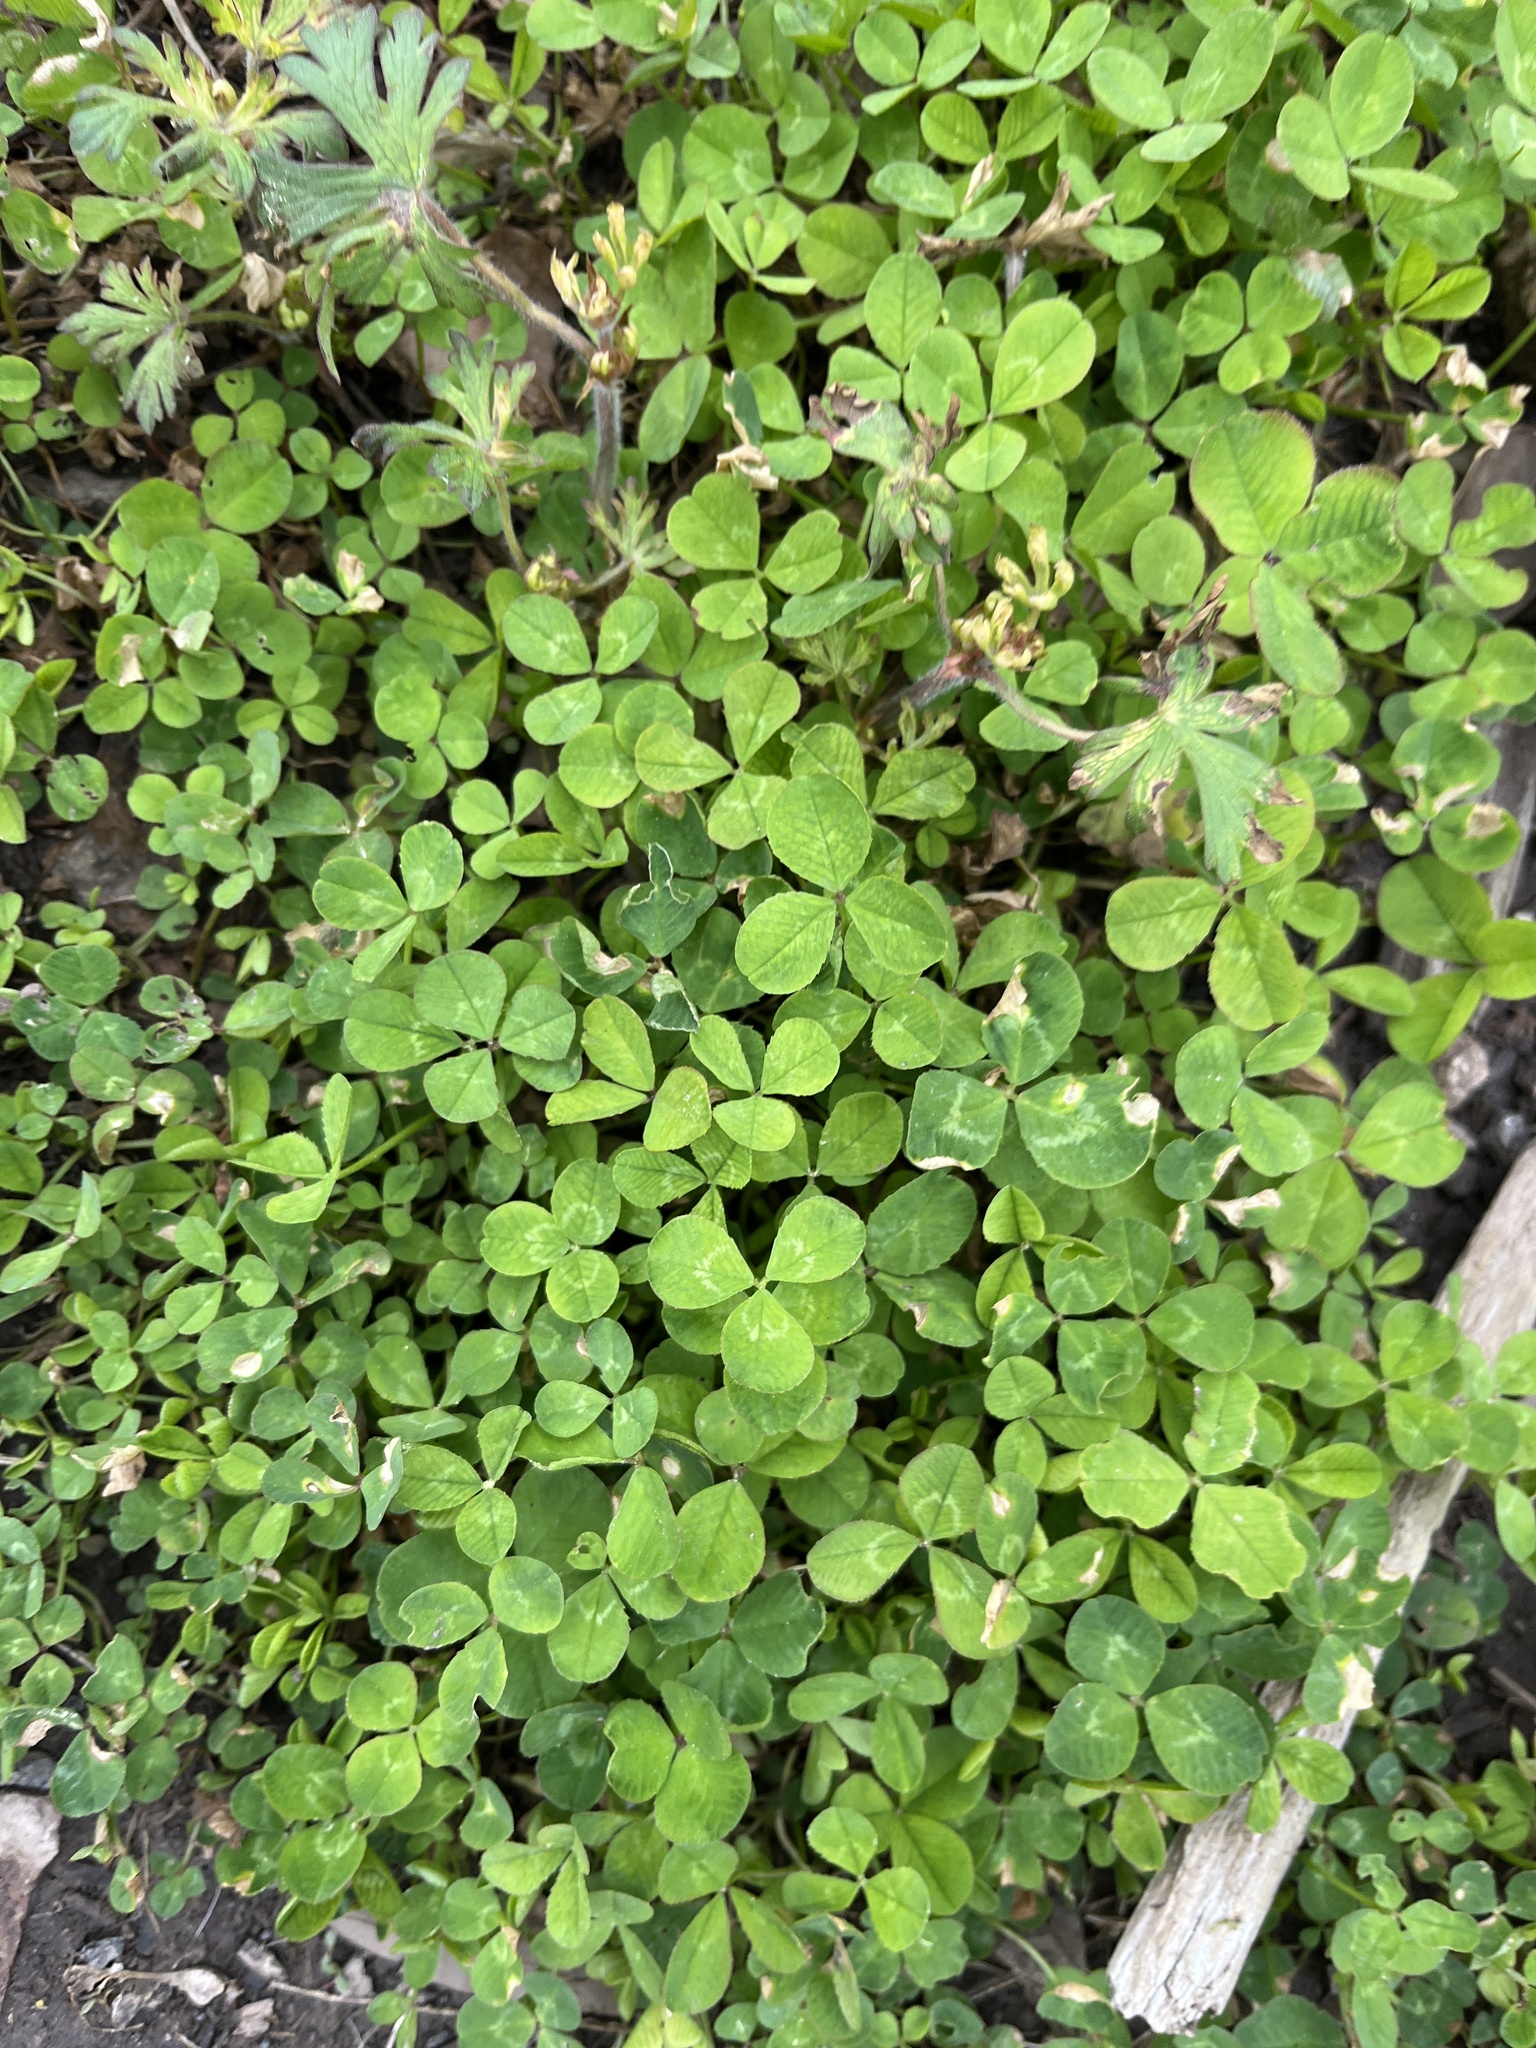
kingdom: Plantae
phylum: Tracheophyta
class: Magnoliopsida
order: Fabales
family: Fabaceae
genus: Trifolium
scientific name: Trifolium repens
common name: White clover
